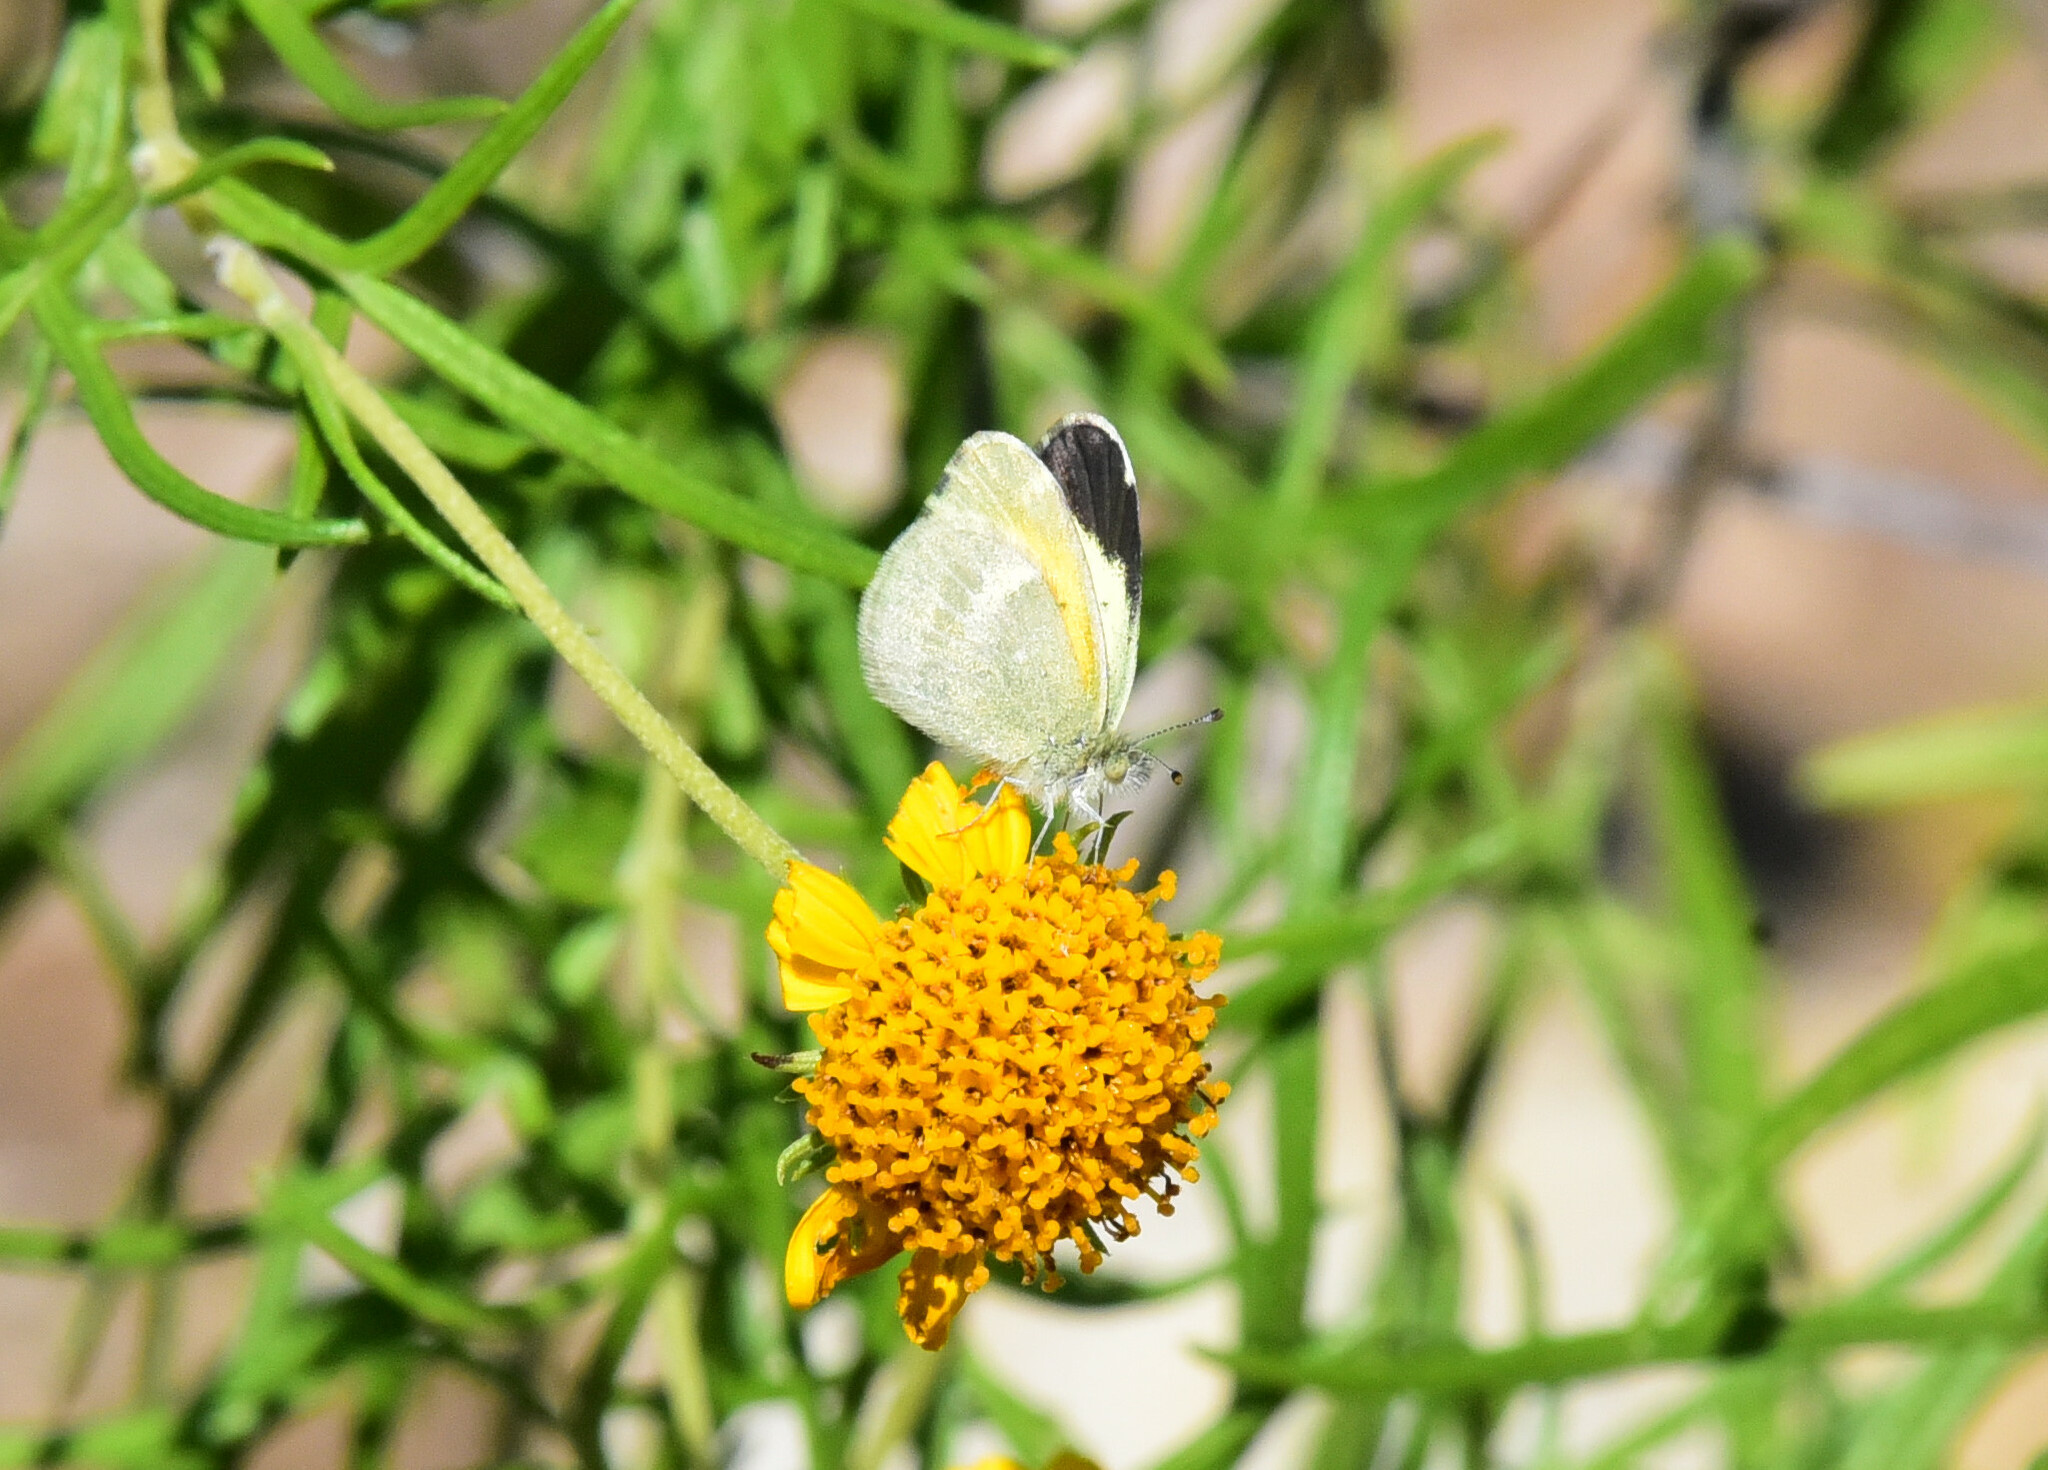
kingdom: Animalia
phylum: Arthropoda
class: Insecta
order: Lepidoptera
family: Pieridae
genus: Nathalis
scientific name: Nathalis iole
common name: Dainty sulphur
